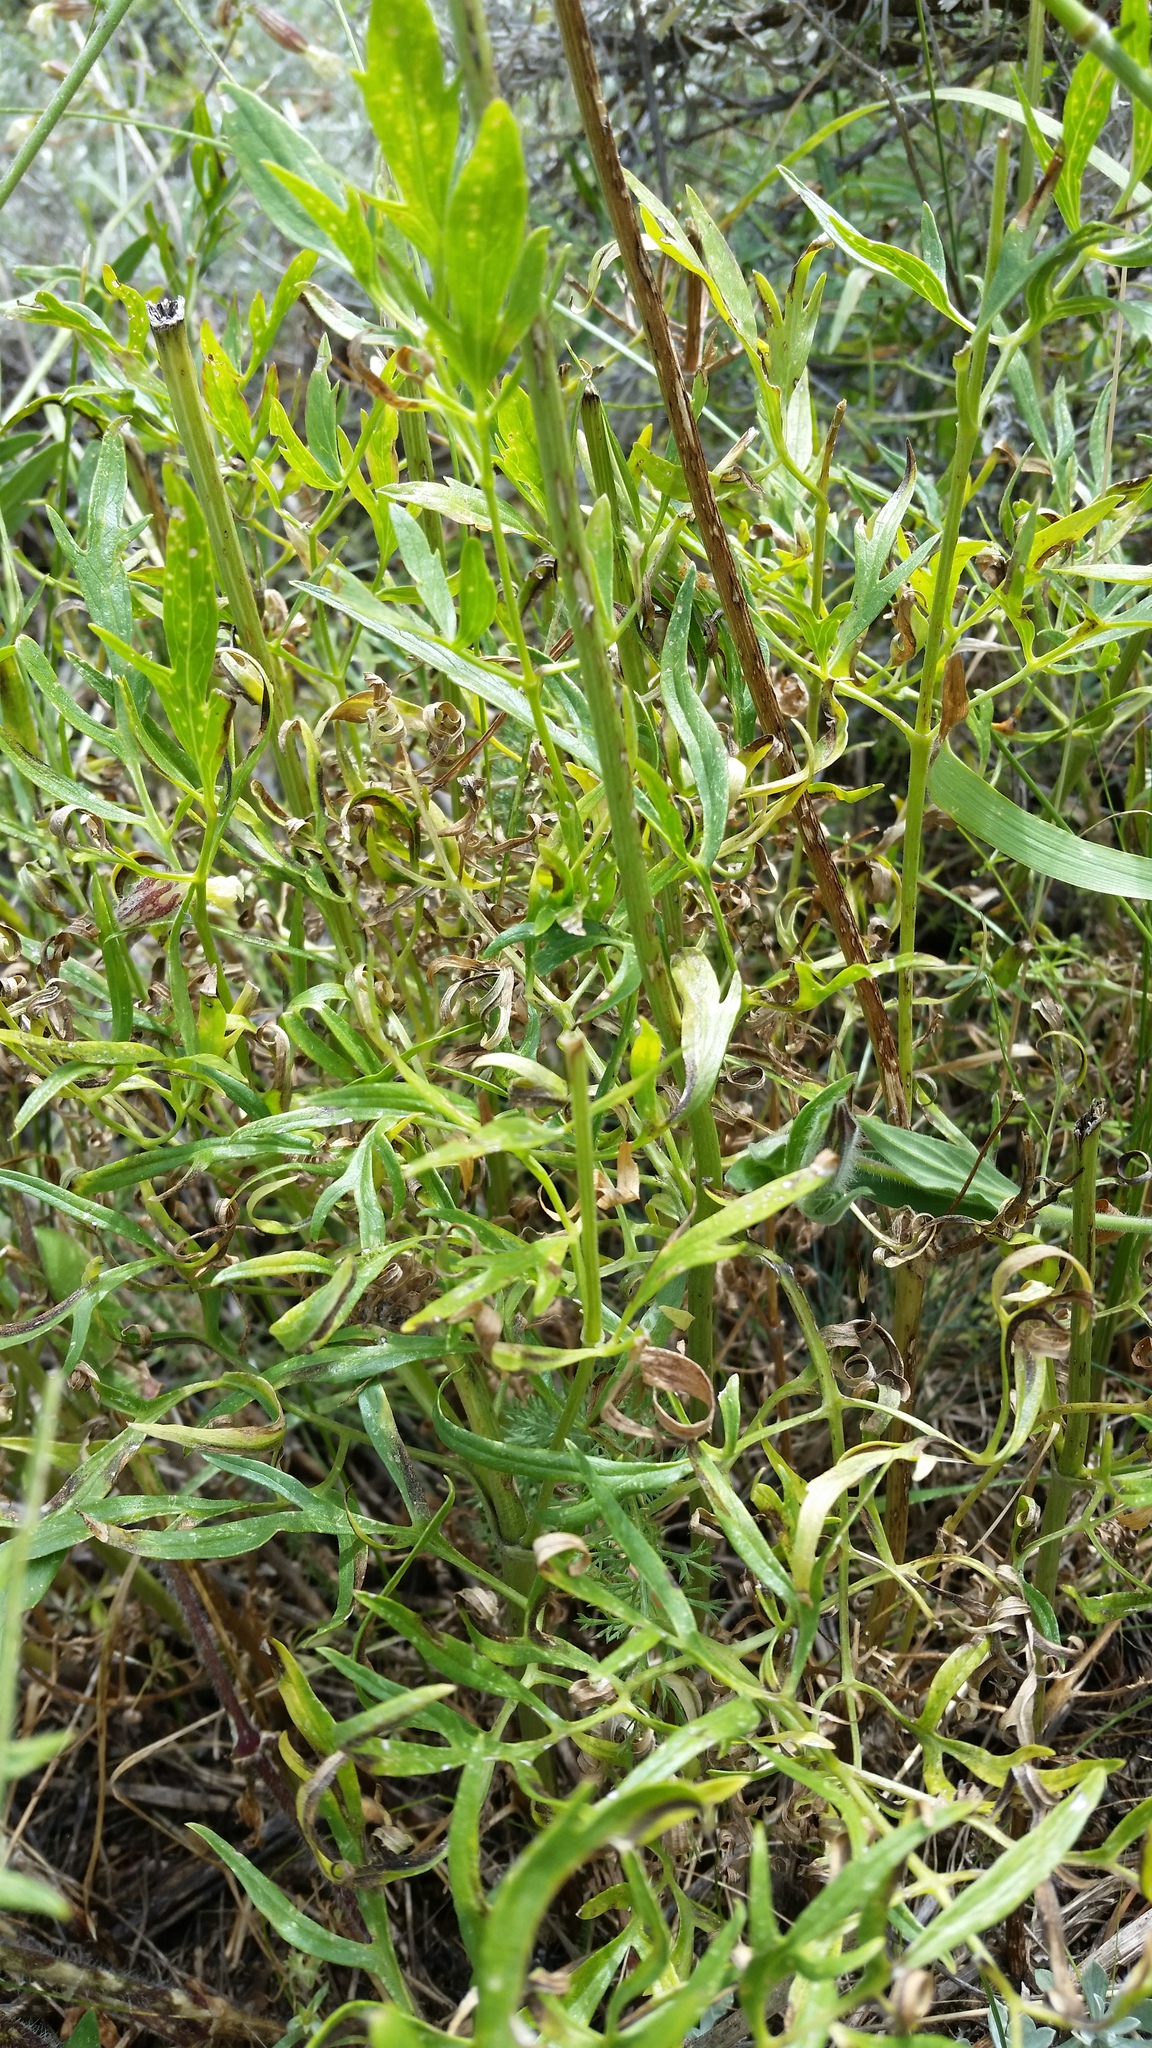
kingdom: Plantae
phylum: Tracheophyta
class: Magnoliopsida
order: Ranunculales
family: Ranunculaceae
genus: Clematis
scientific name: Clematis hirsutissima
